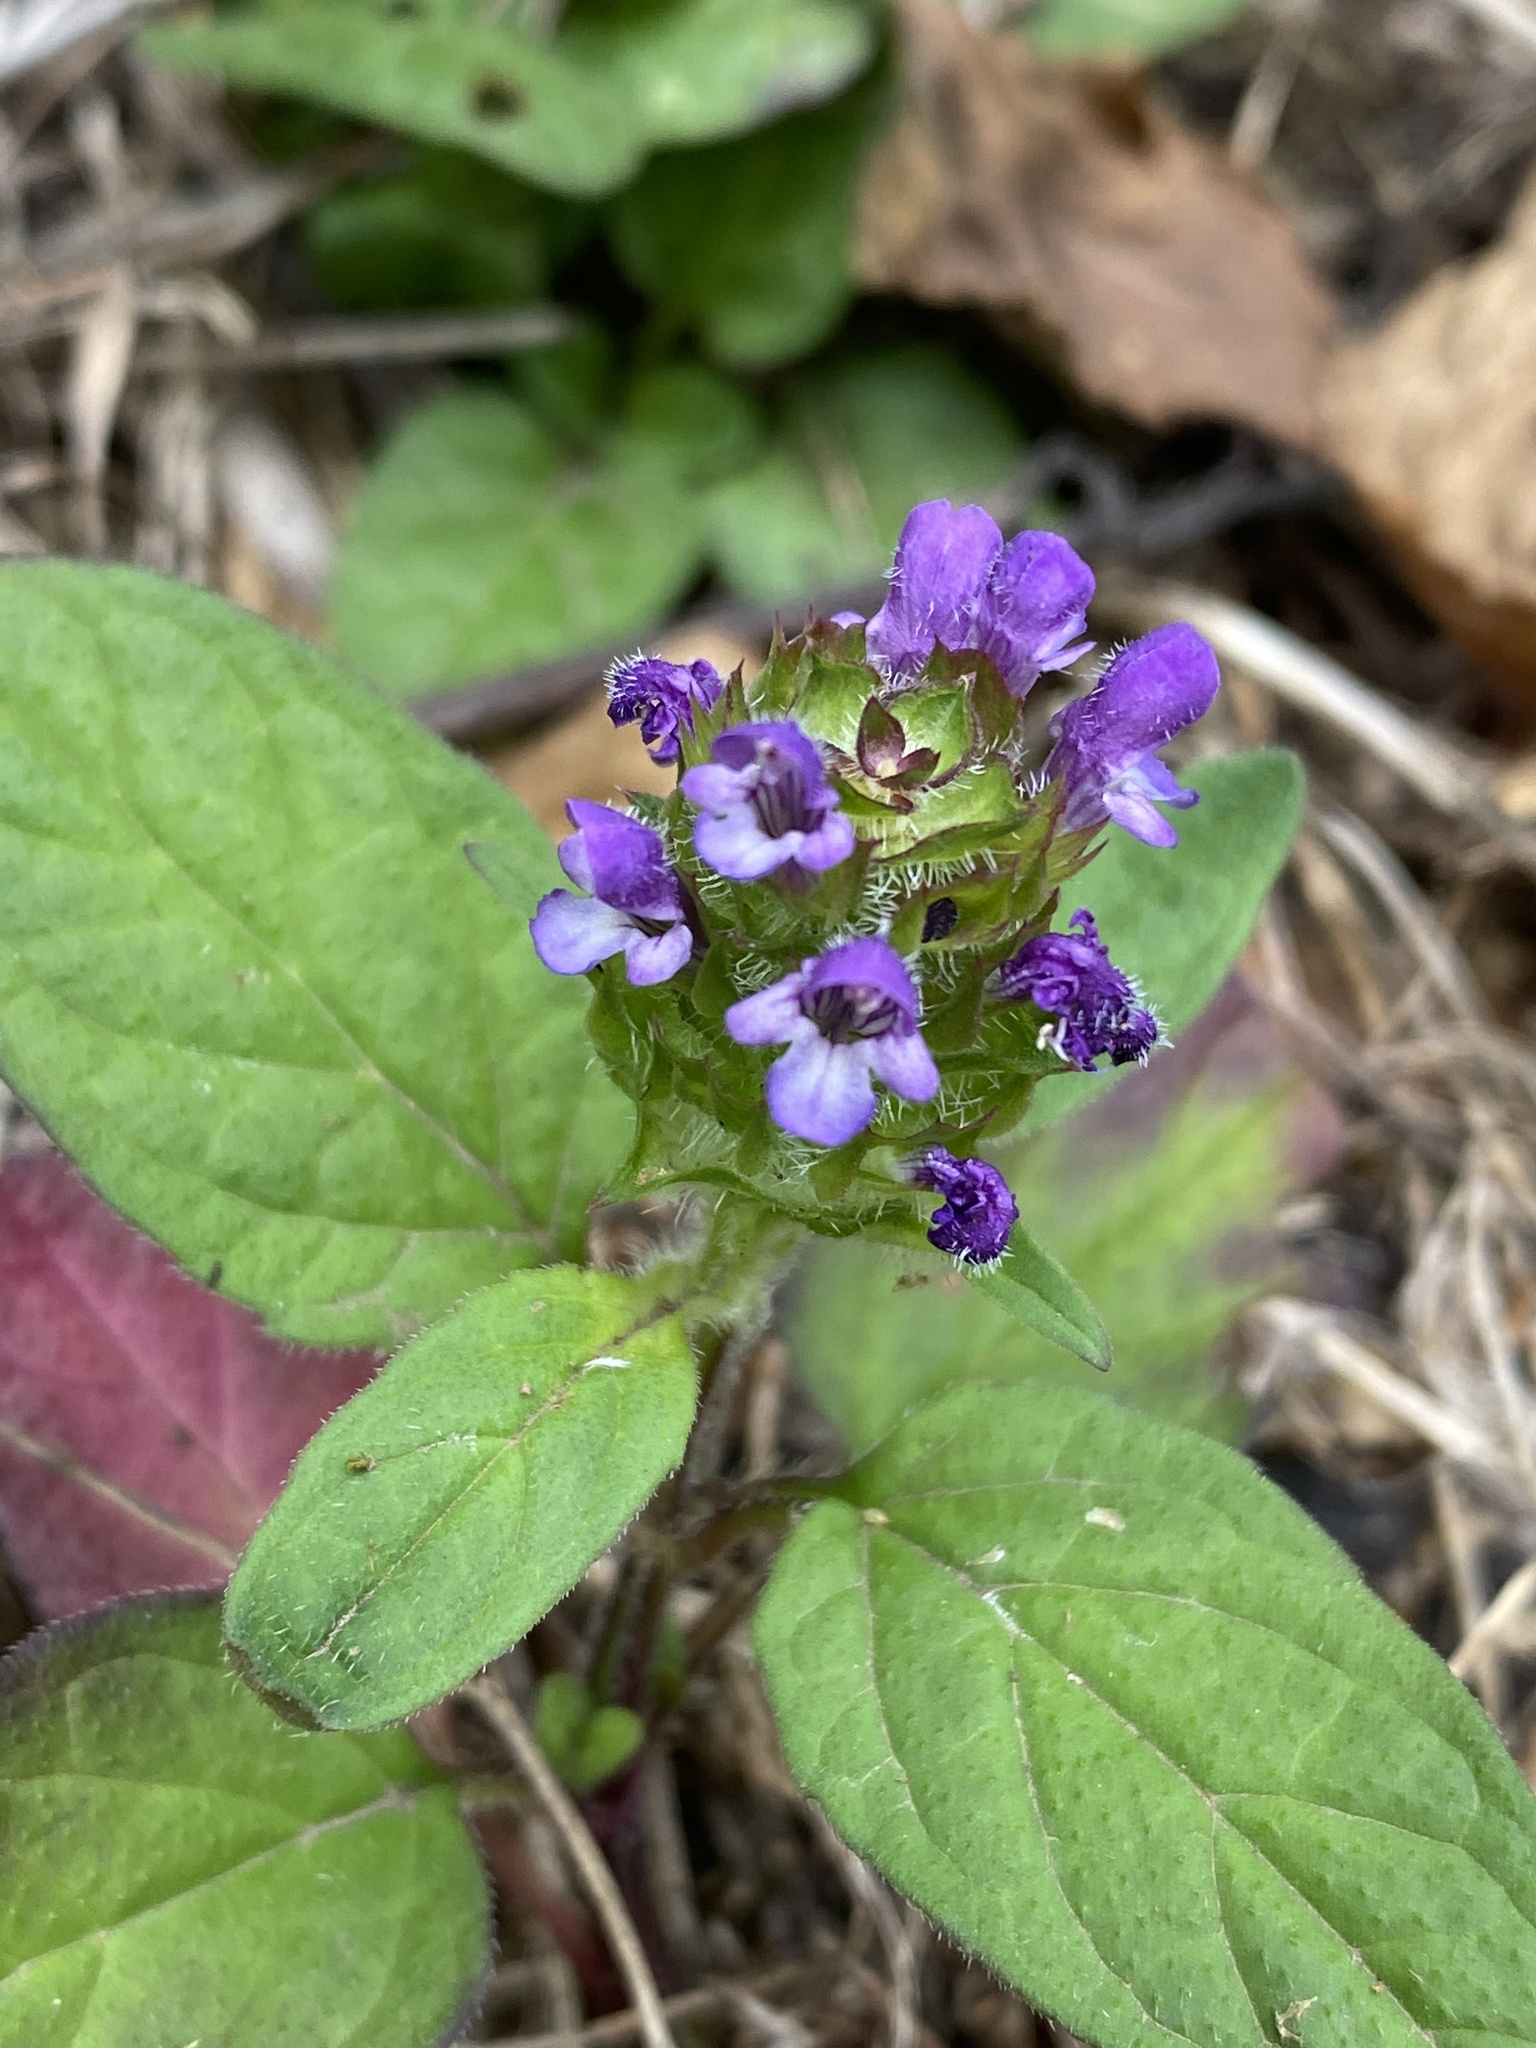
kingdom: Plantae
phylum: Tracheophyta
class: Magnoliopsida
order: Lamiales
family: Lamiaceae
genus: Prunella
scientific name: Prunella vulgaris
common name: Heal-all
